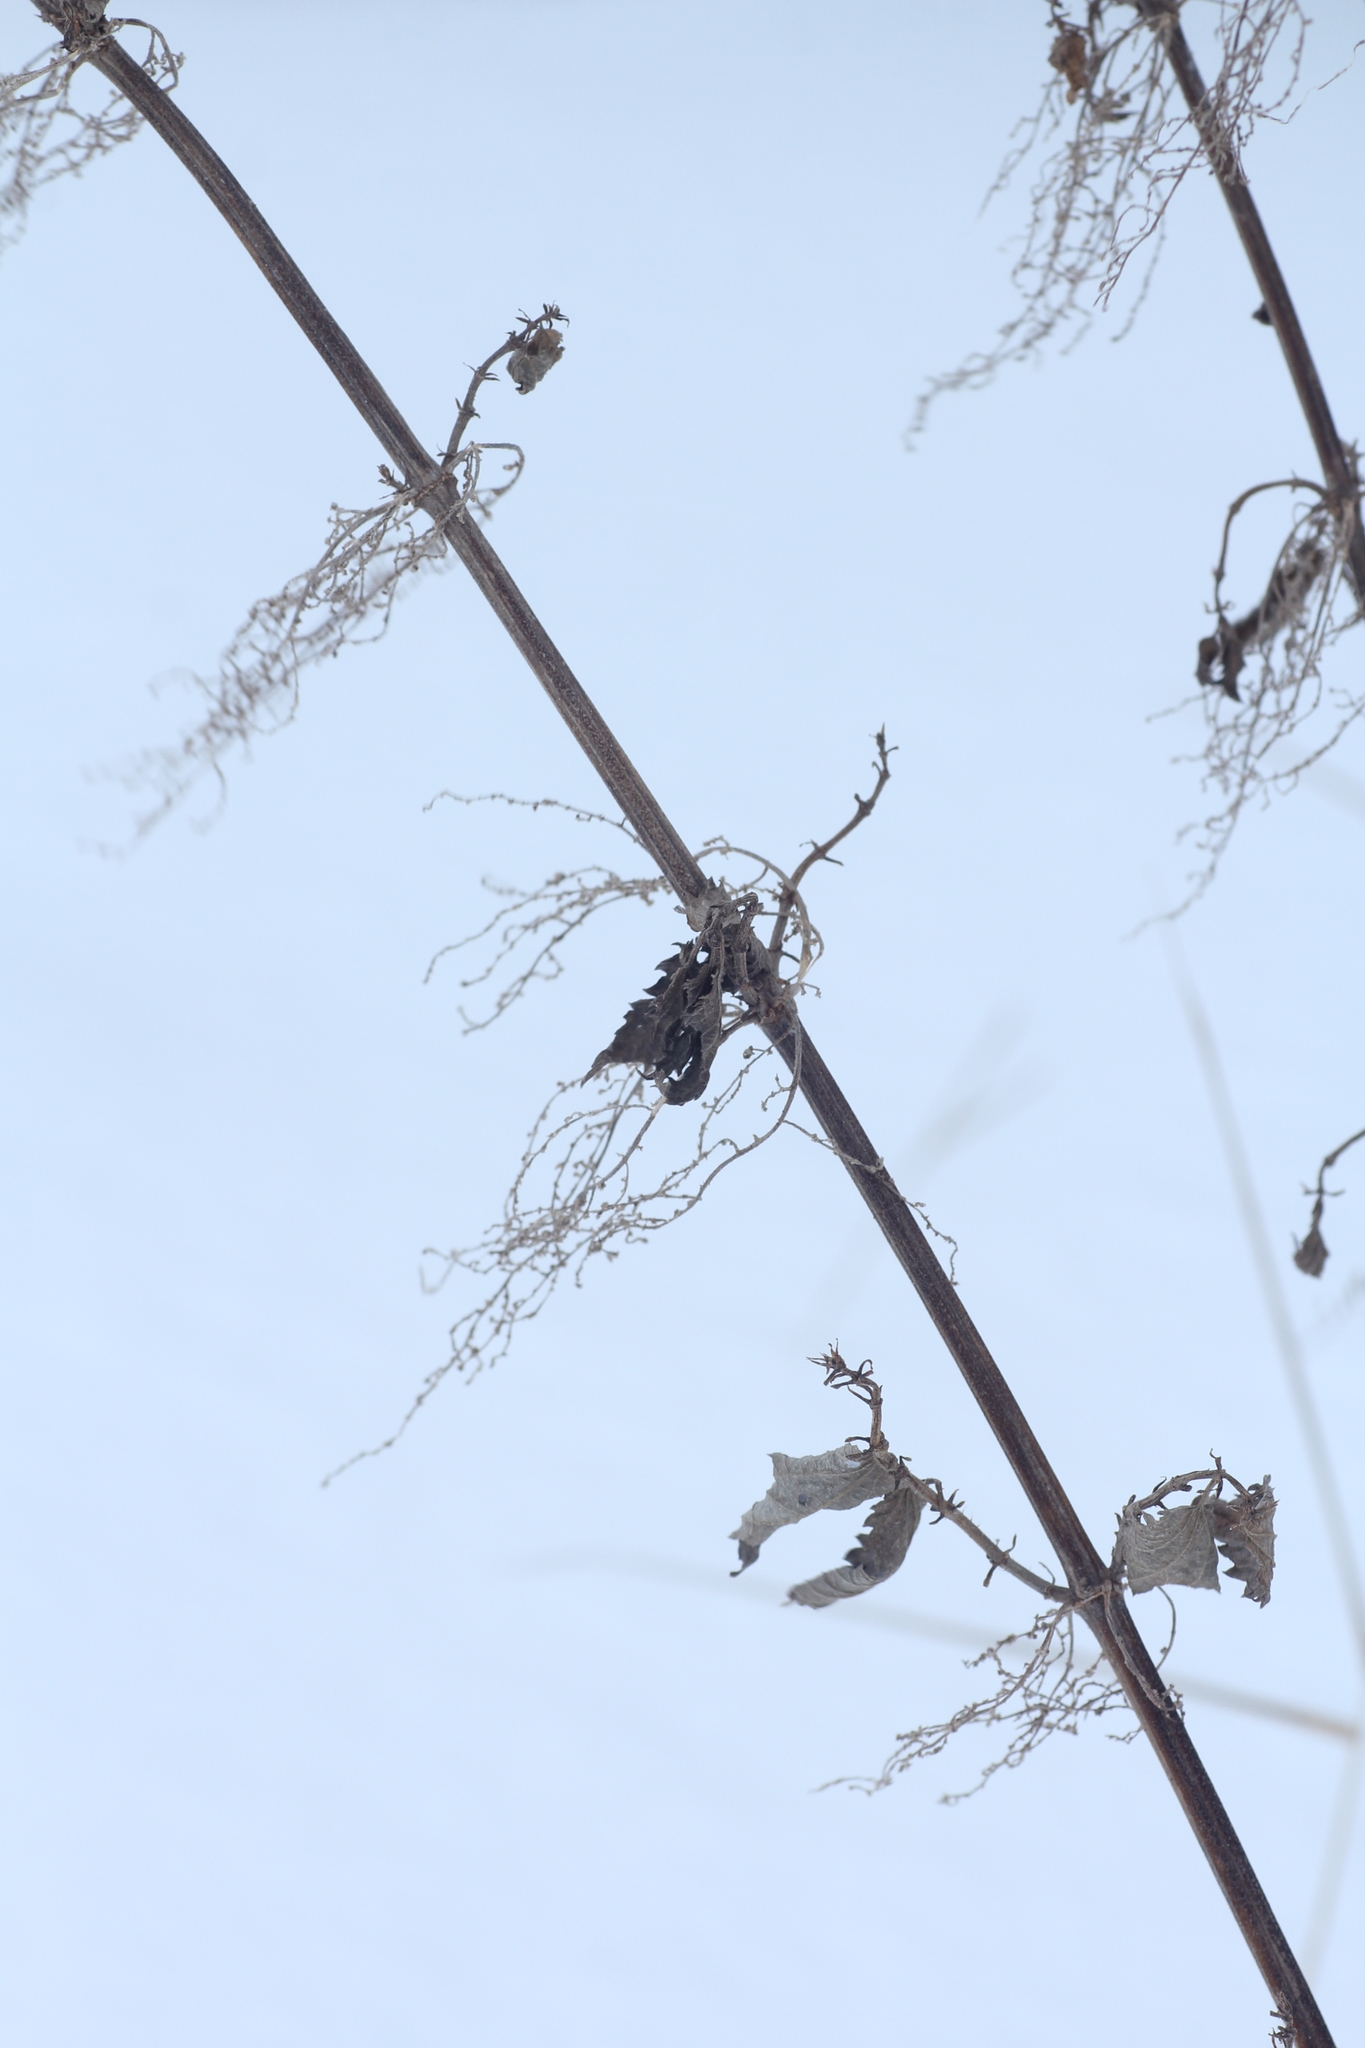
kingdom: Plantae
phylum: Tracheophyta
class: Magnoliopsida
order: Rosales
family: Urticaceae
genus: Urtica
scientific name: Urtica dioica
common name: Common nettle
